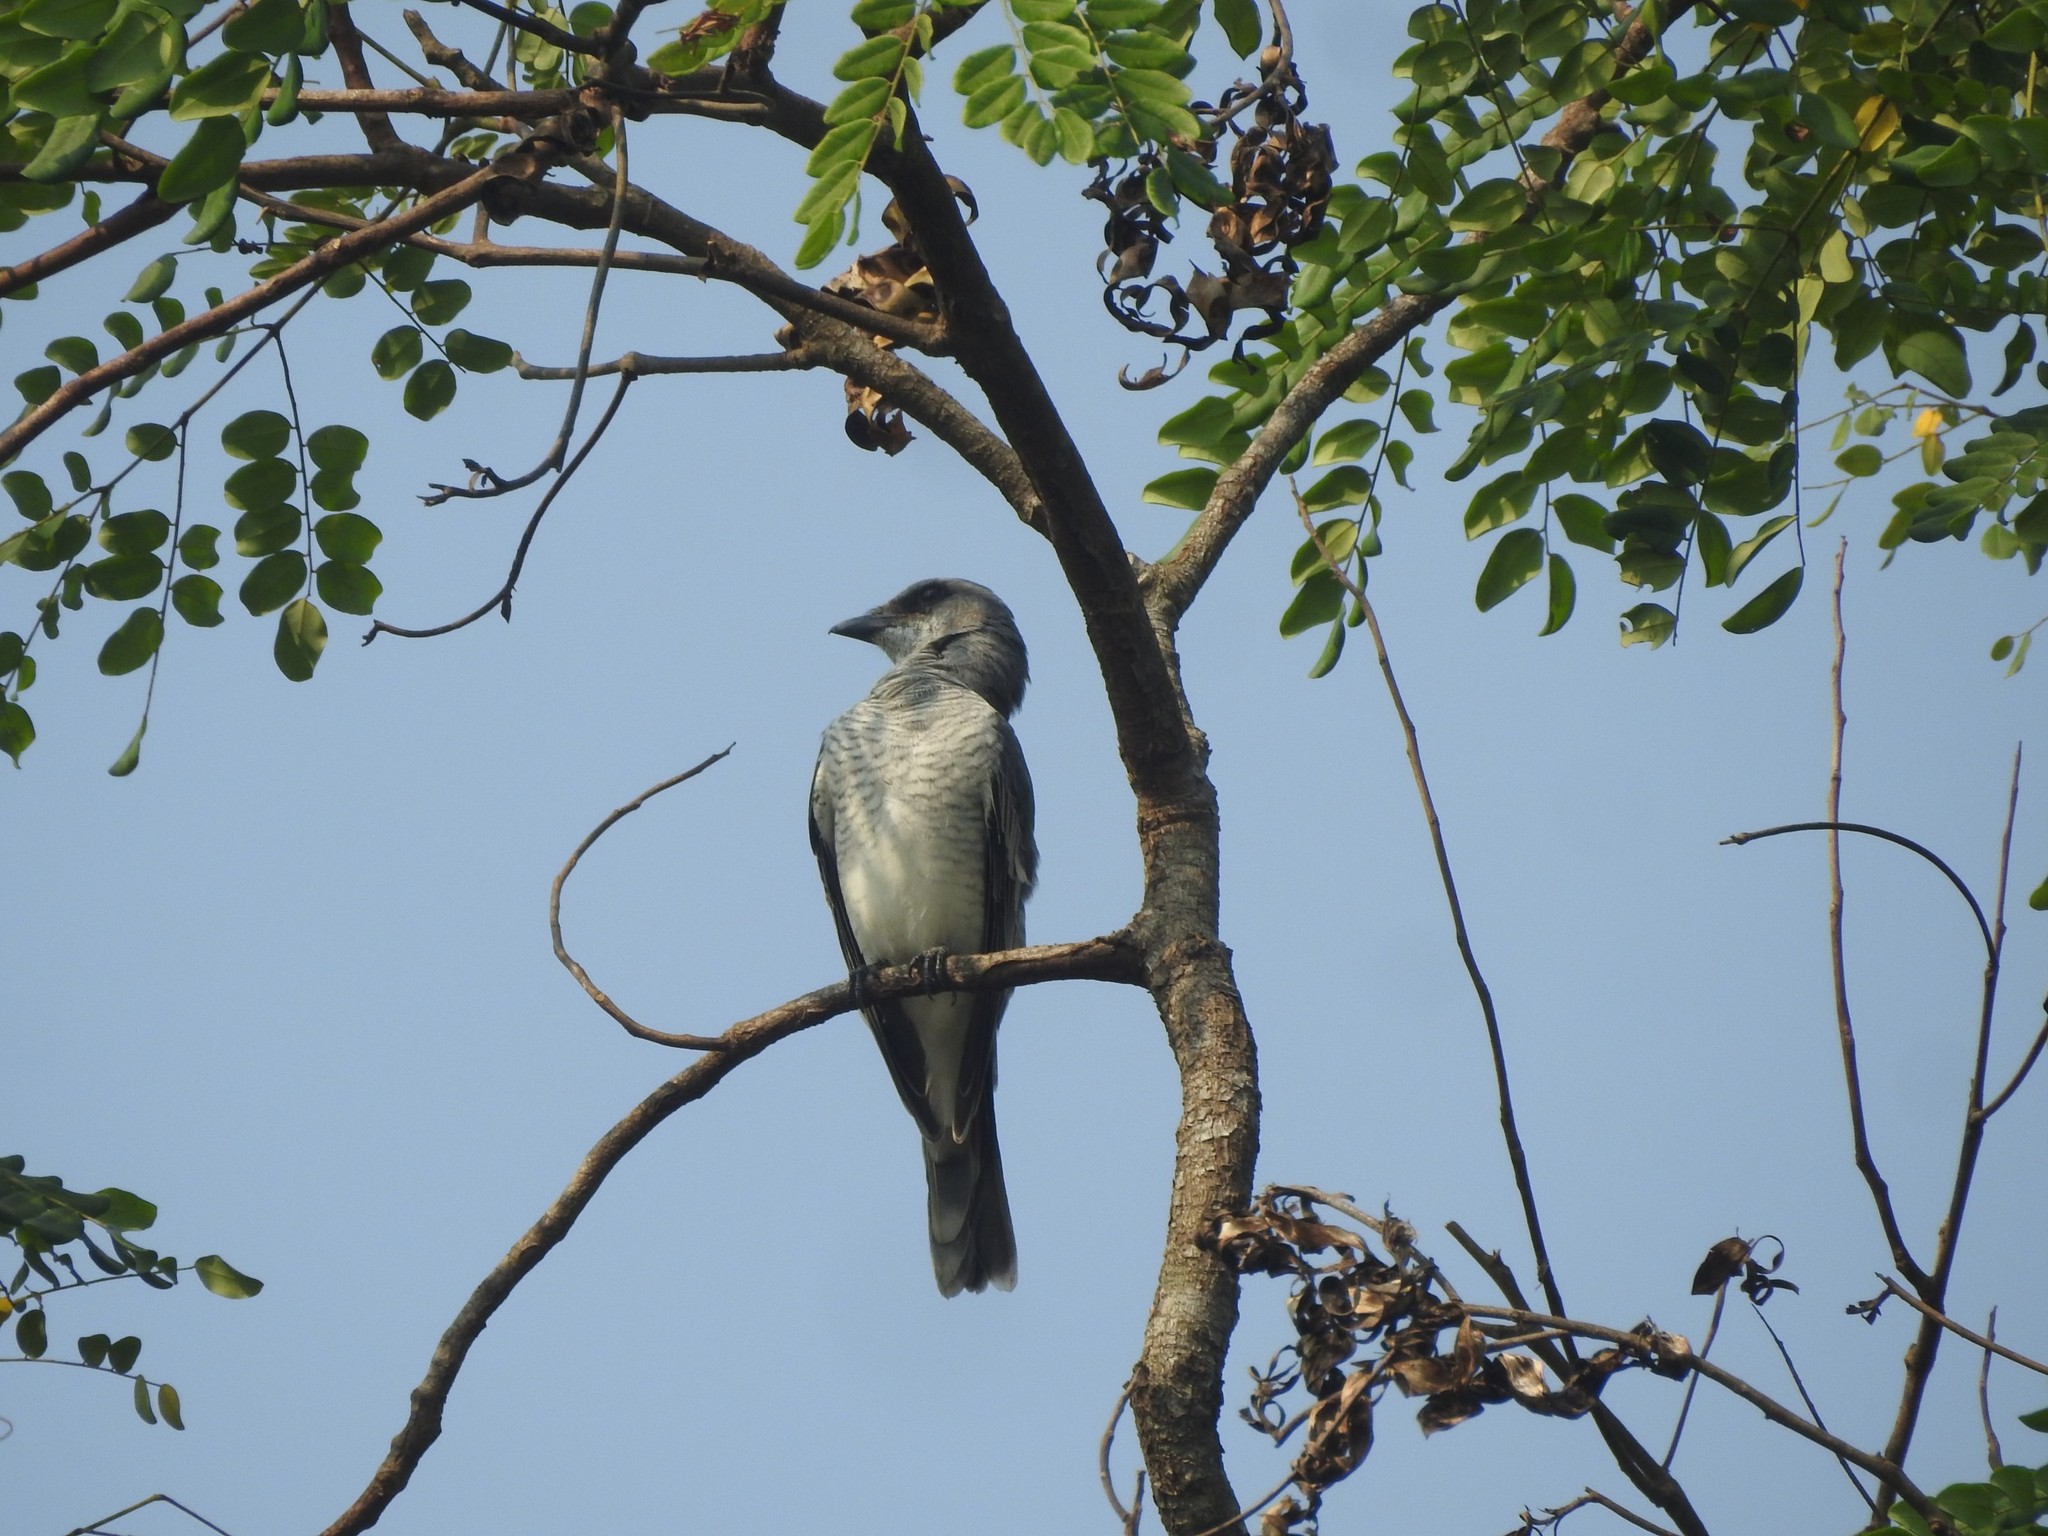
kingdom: Animalia
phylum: Chordata
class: Aves
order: Passeriformes
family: Campephagidae
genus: Coracina
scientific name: Coracina macei
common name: Large cuckooshrike
